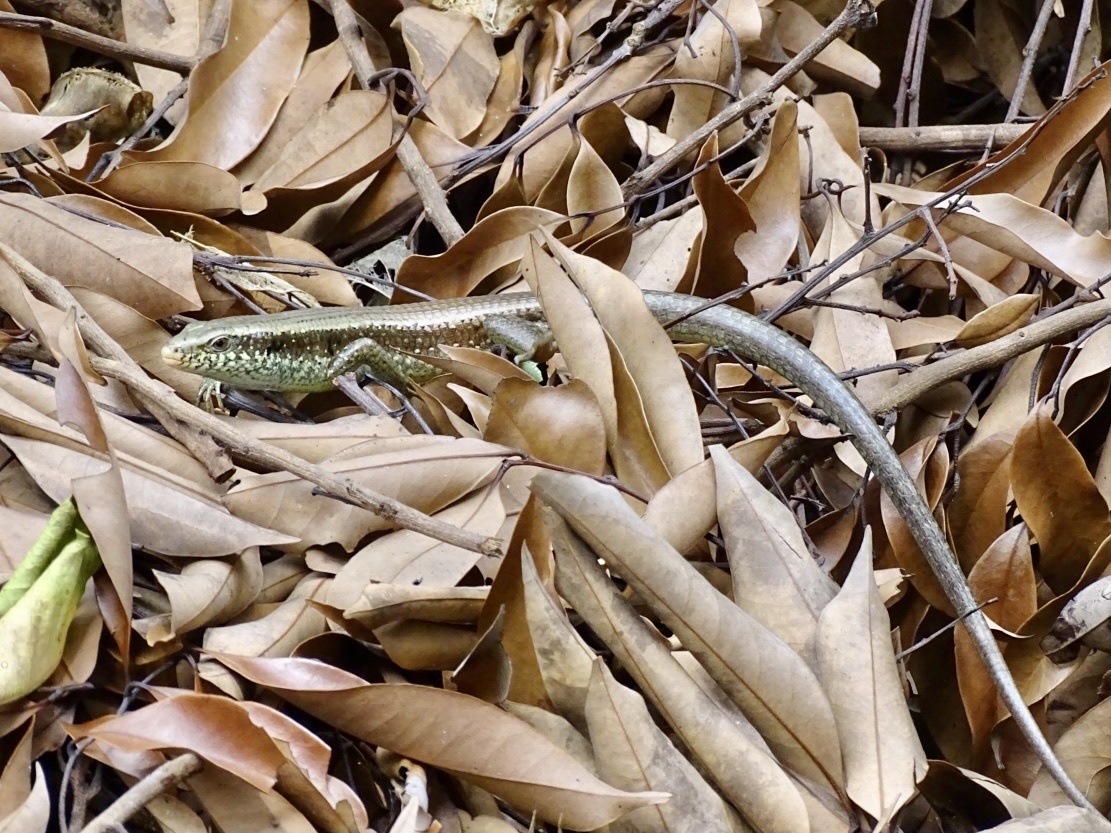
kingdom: Animalia
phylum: Chordata
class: Squamata
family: Scincidae
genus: Eutropis
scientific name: Eutropis longicaudata
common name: Long-tailed sun skink
